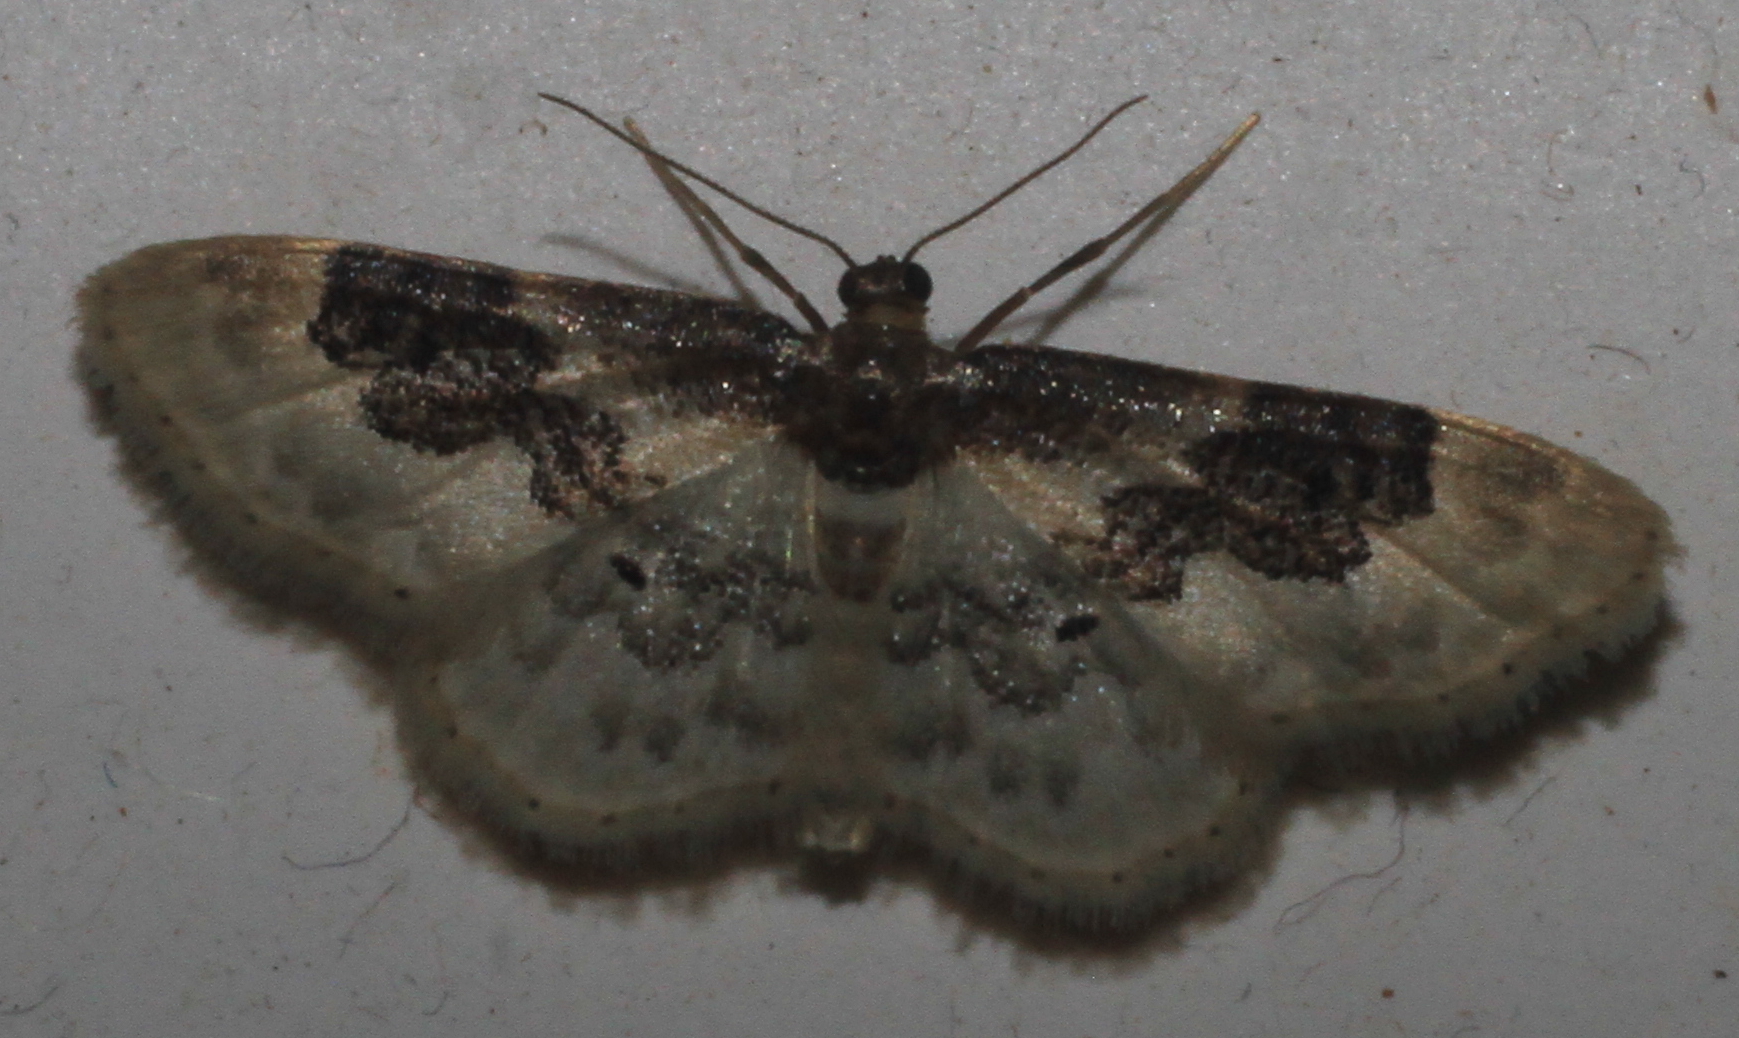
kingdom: Animalia
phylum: Arthropoda
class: Insecta
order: Lepidoptera
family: Geometridae
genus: Idaea
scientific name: Idaea rusticata
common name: Least carpet
